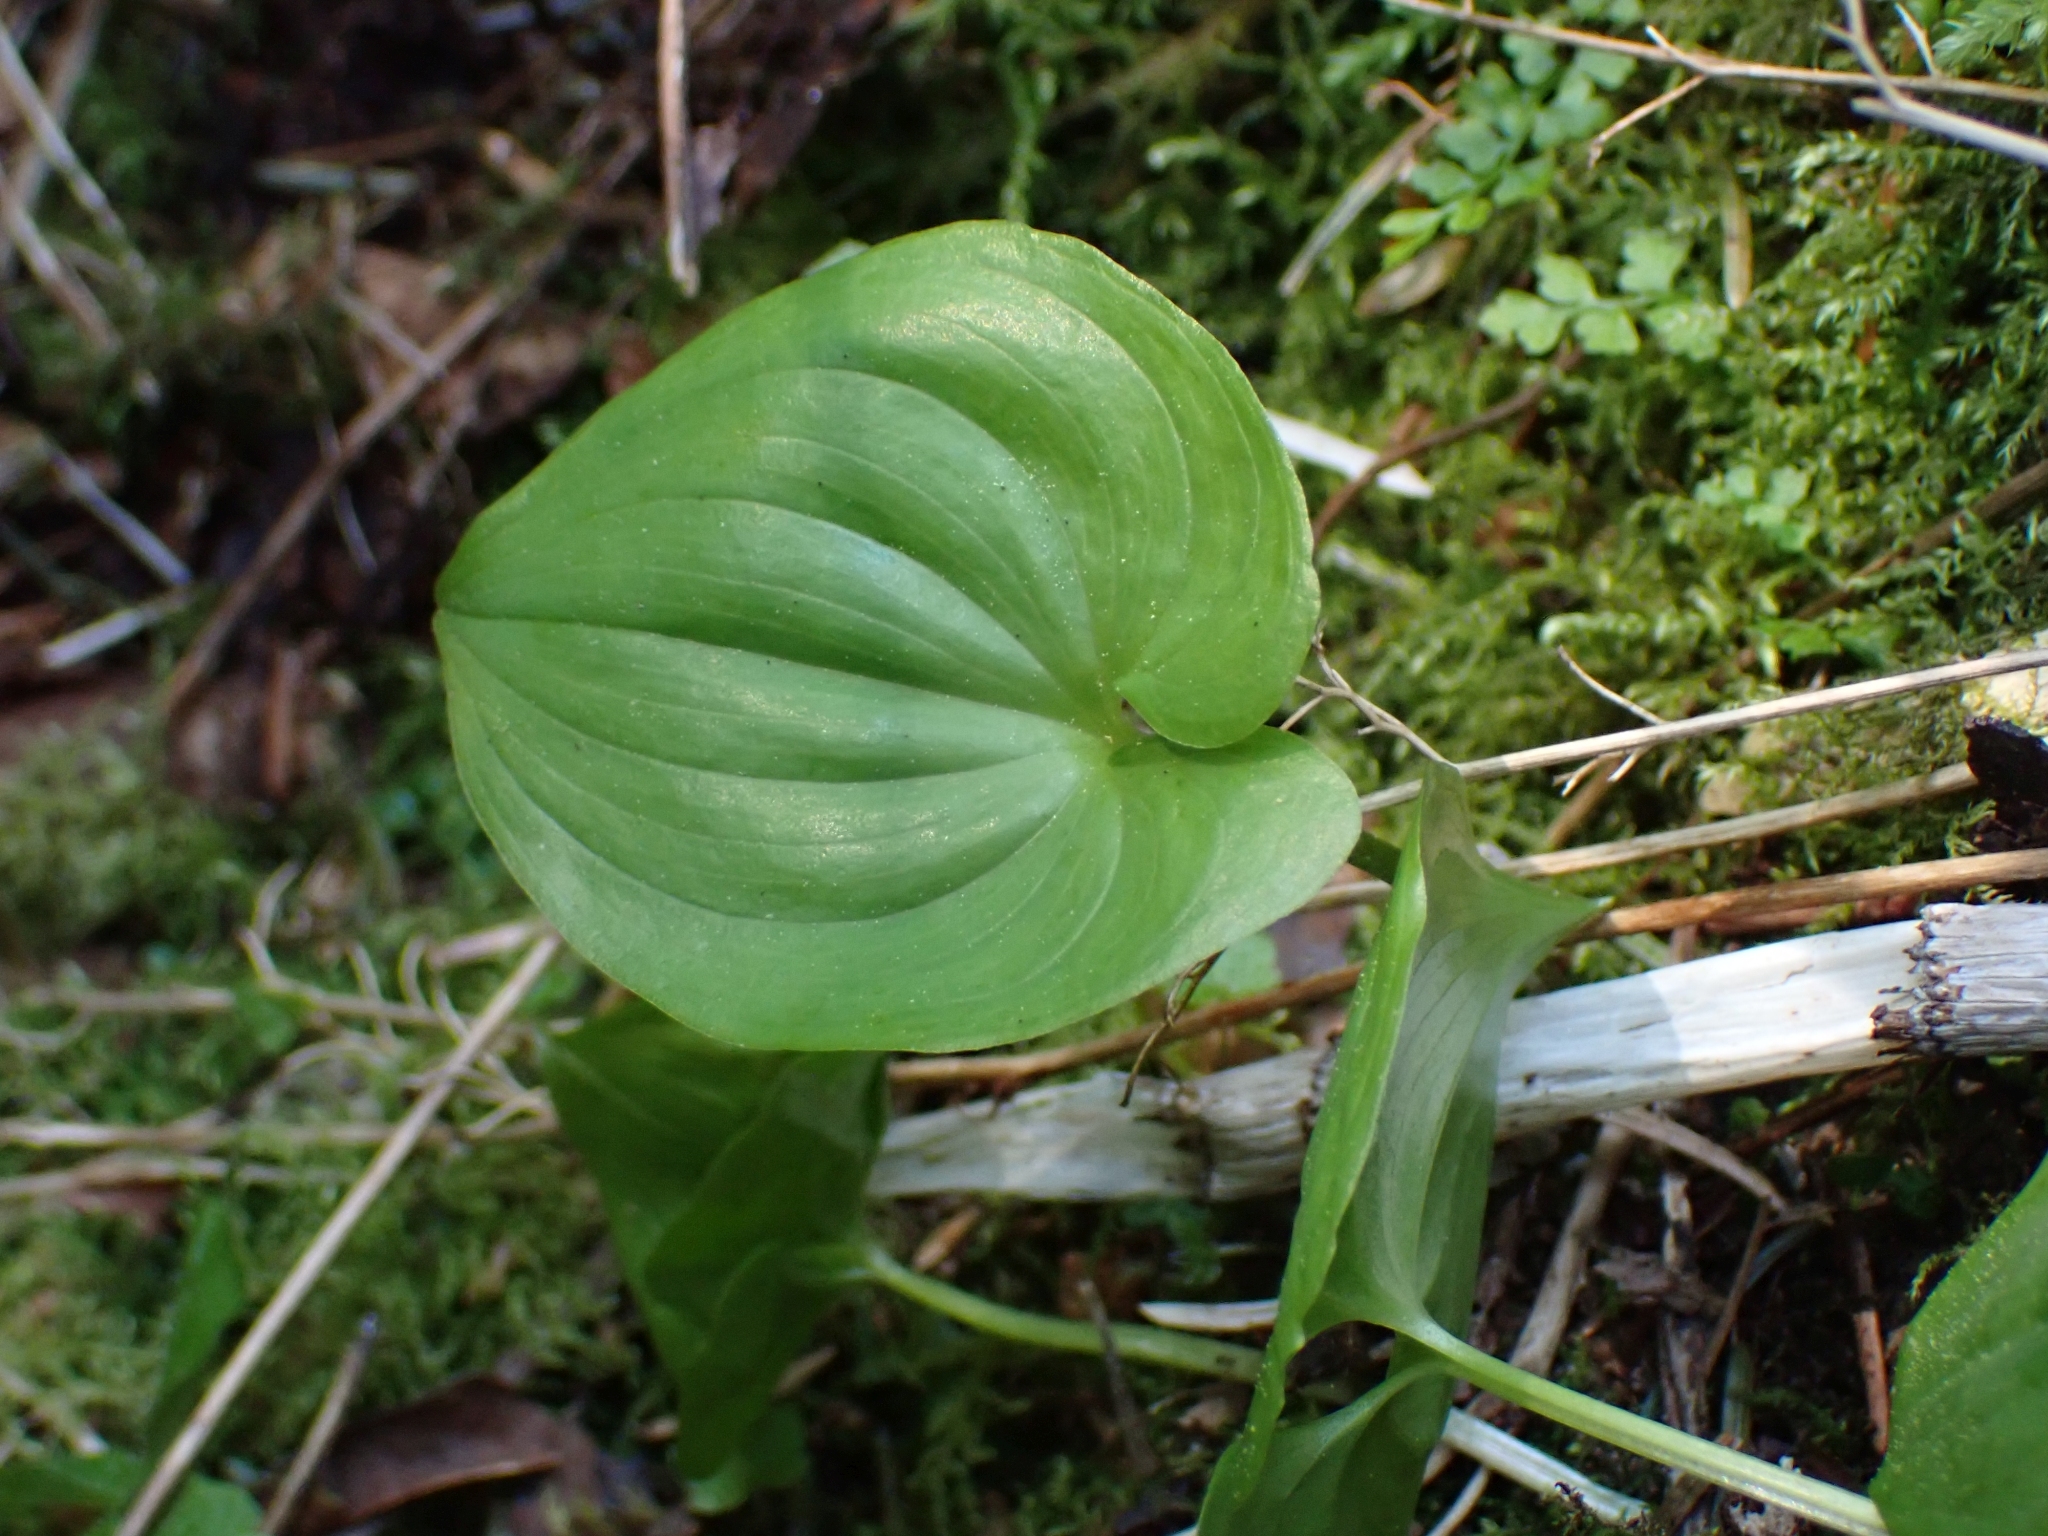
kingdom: Plantae
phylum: Tracheophyta
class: Liliopsida
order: Asparagales
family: Asparagaceae
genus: Maianthemum
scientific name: Maianthemum dilatatum
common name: False lily-of-the-valley
